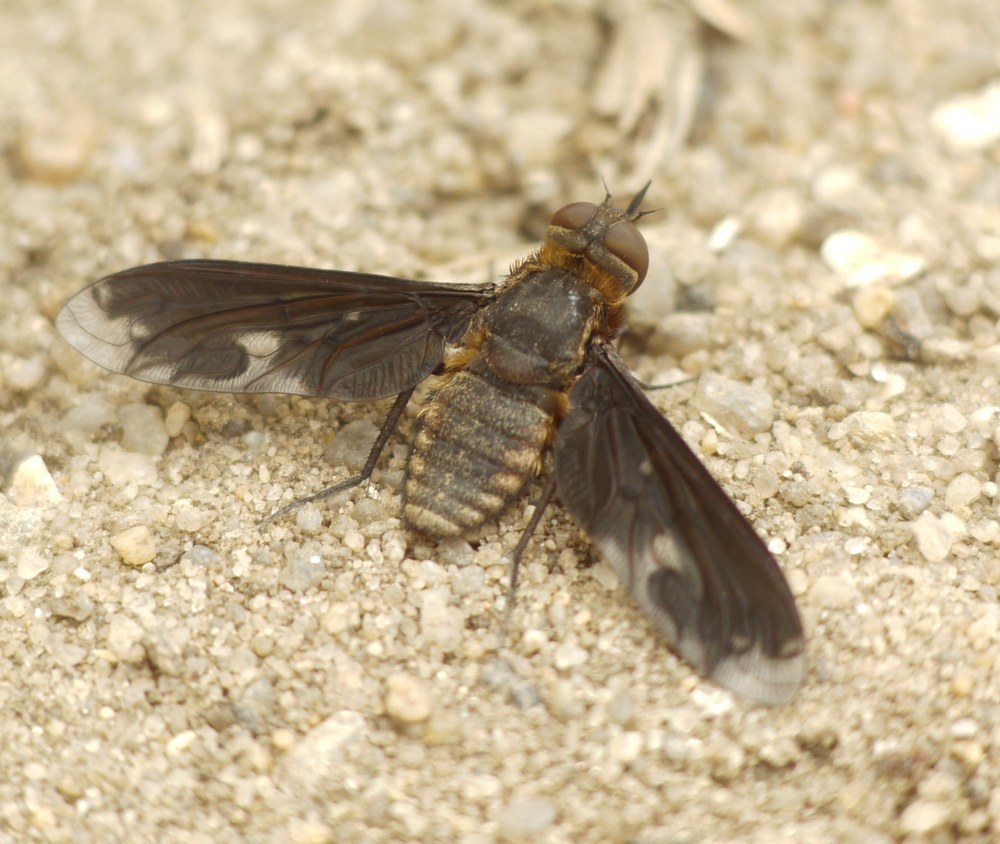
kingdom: Animalia
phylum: Arthropoda
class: Insecta
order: Diptera
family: Bombyliidae
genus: Heteralonia
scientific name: Heteralonia megerlei
